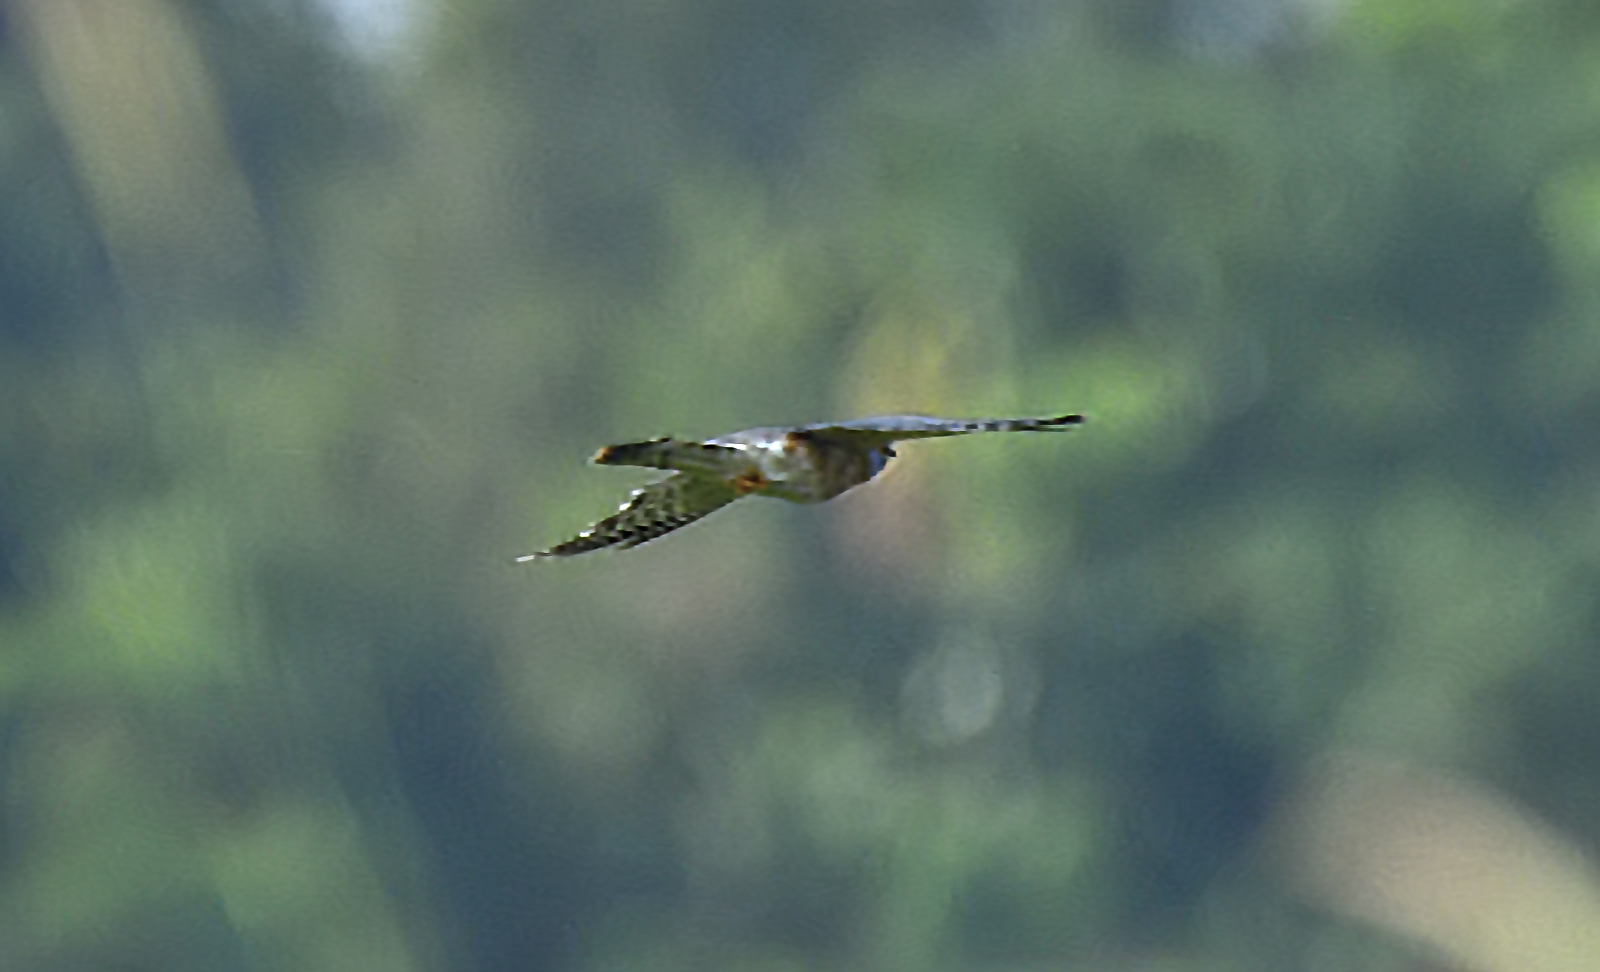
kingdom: Animalia
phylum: Chordata
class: Aves
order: Cuculiformes
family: Cuculidae
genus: Cuculus
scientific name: Cuculus varius
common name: Common hawk cuckoo
